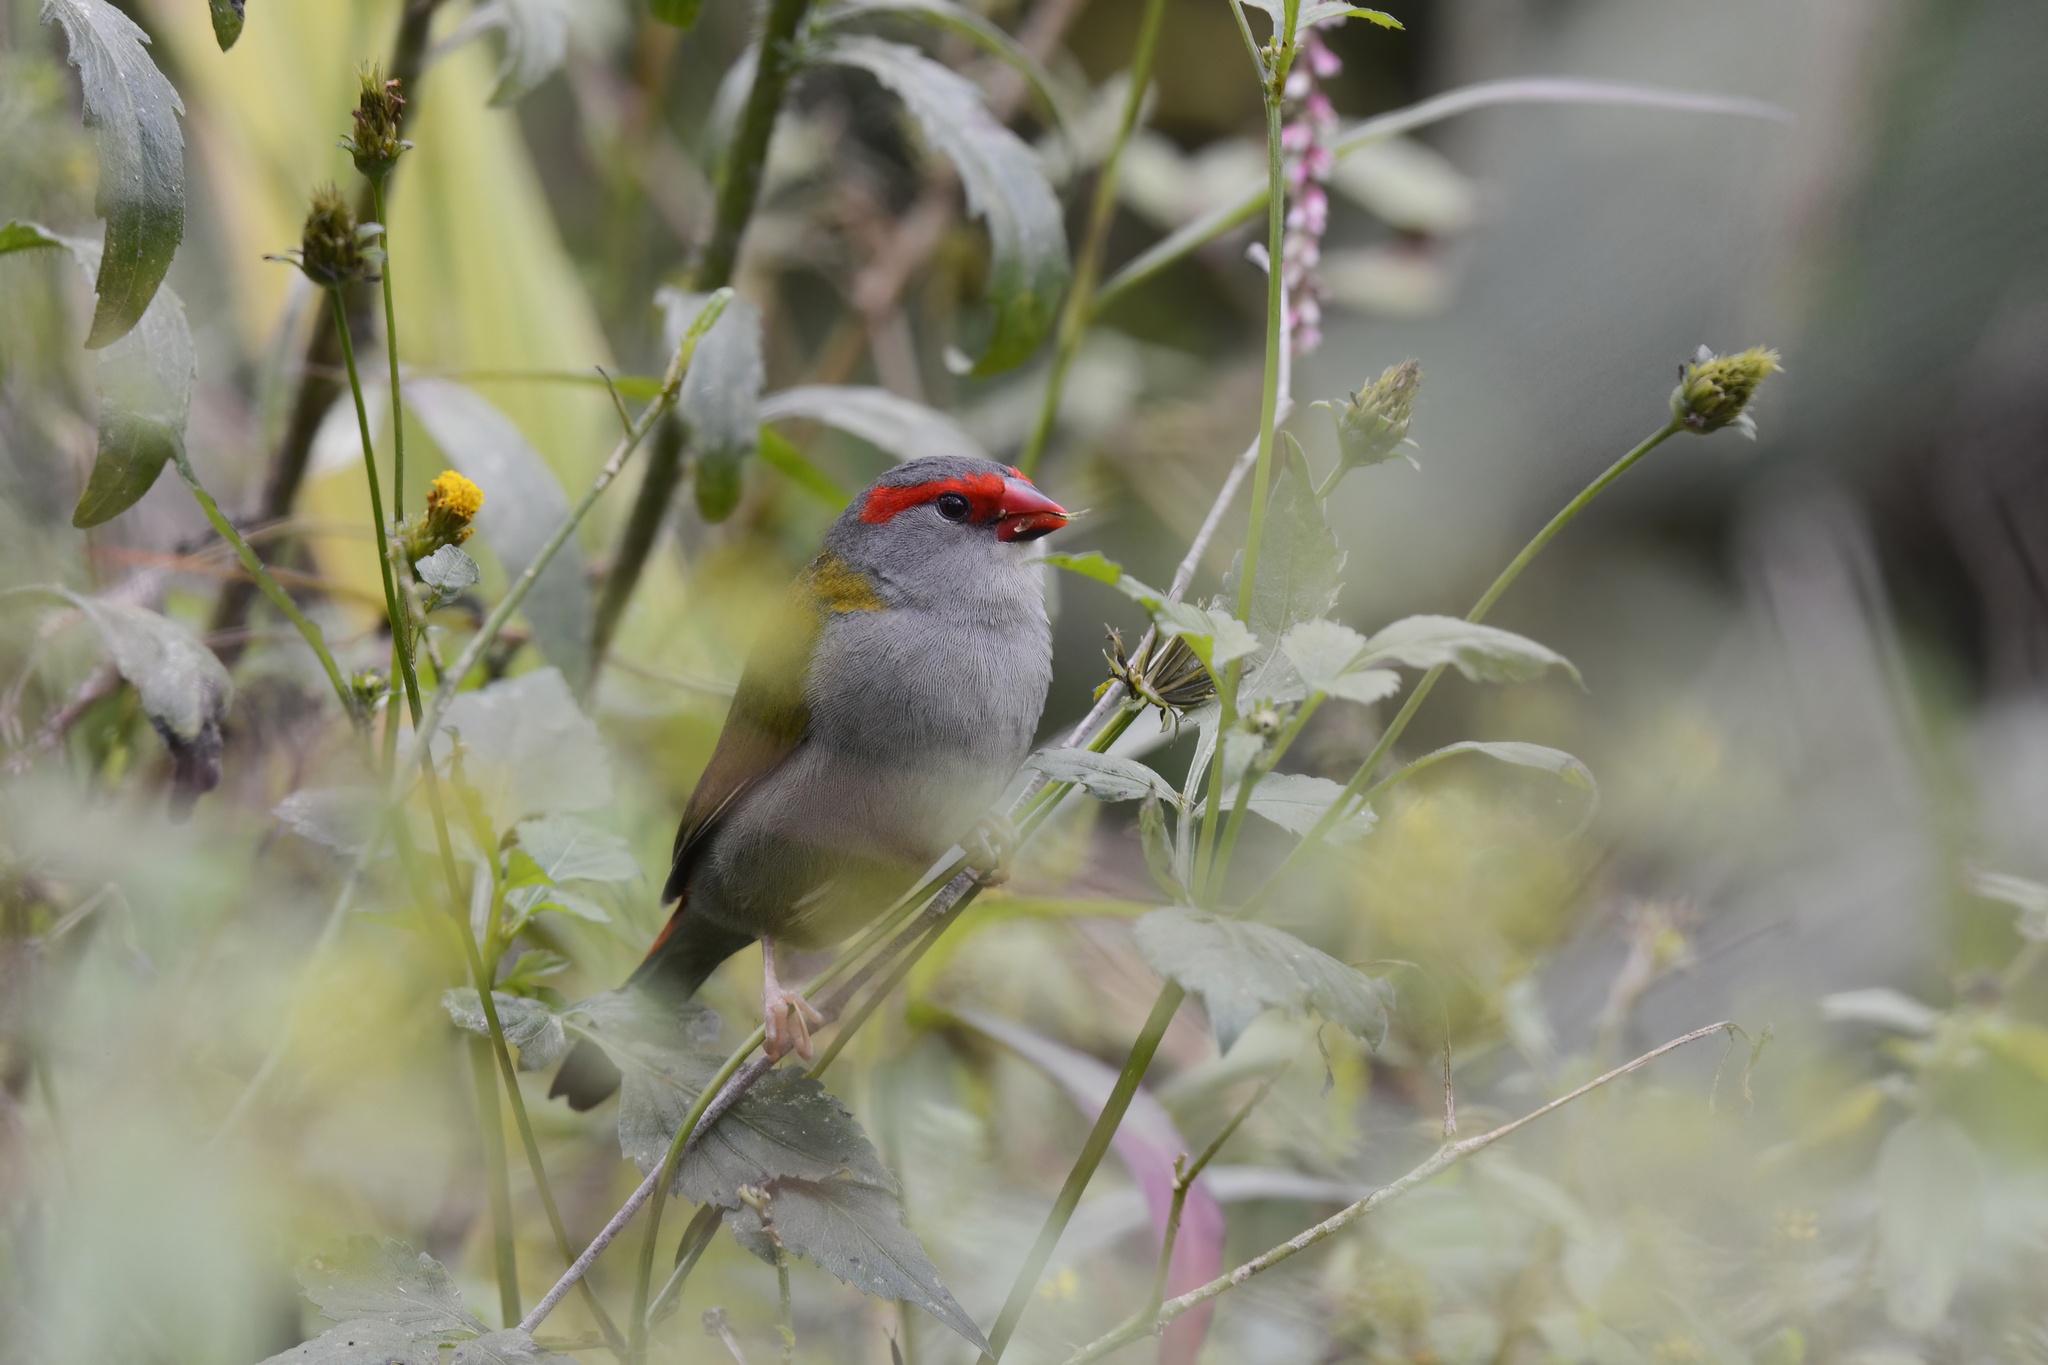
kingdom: Animalia
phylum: Chordata
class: Aves
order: Passeriformes
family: Estrildidae
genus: Neochmia
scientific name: Neochmia temporalis
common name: Red-browed finch
